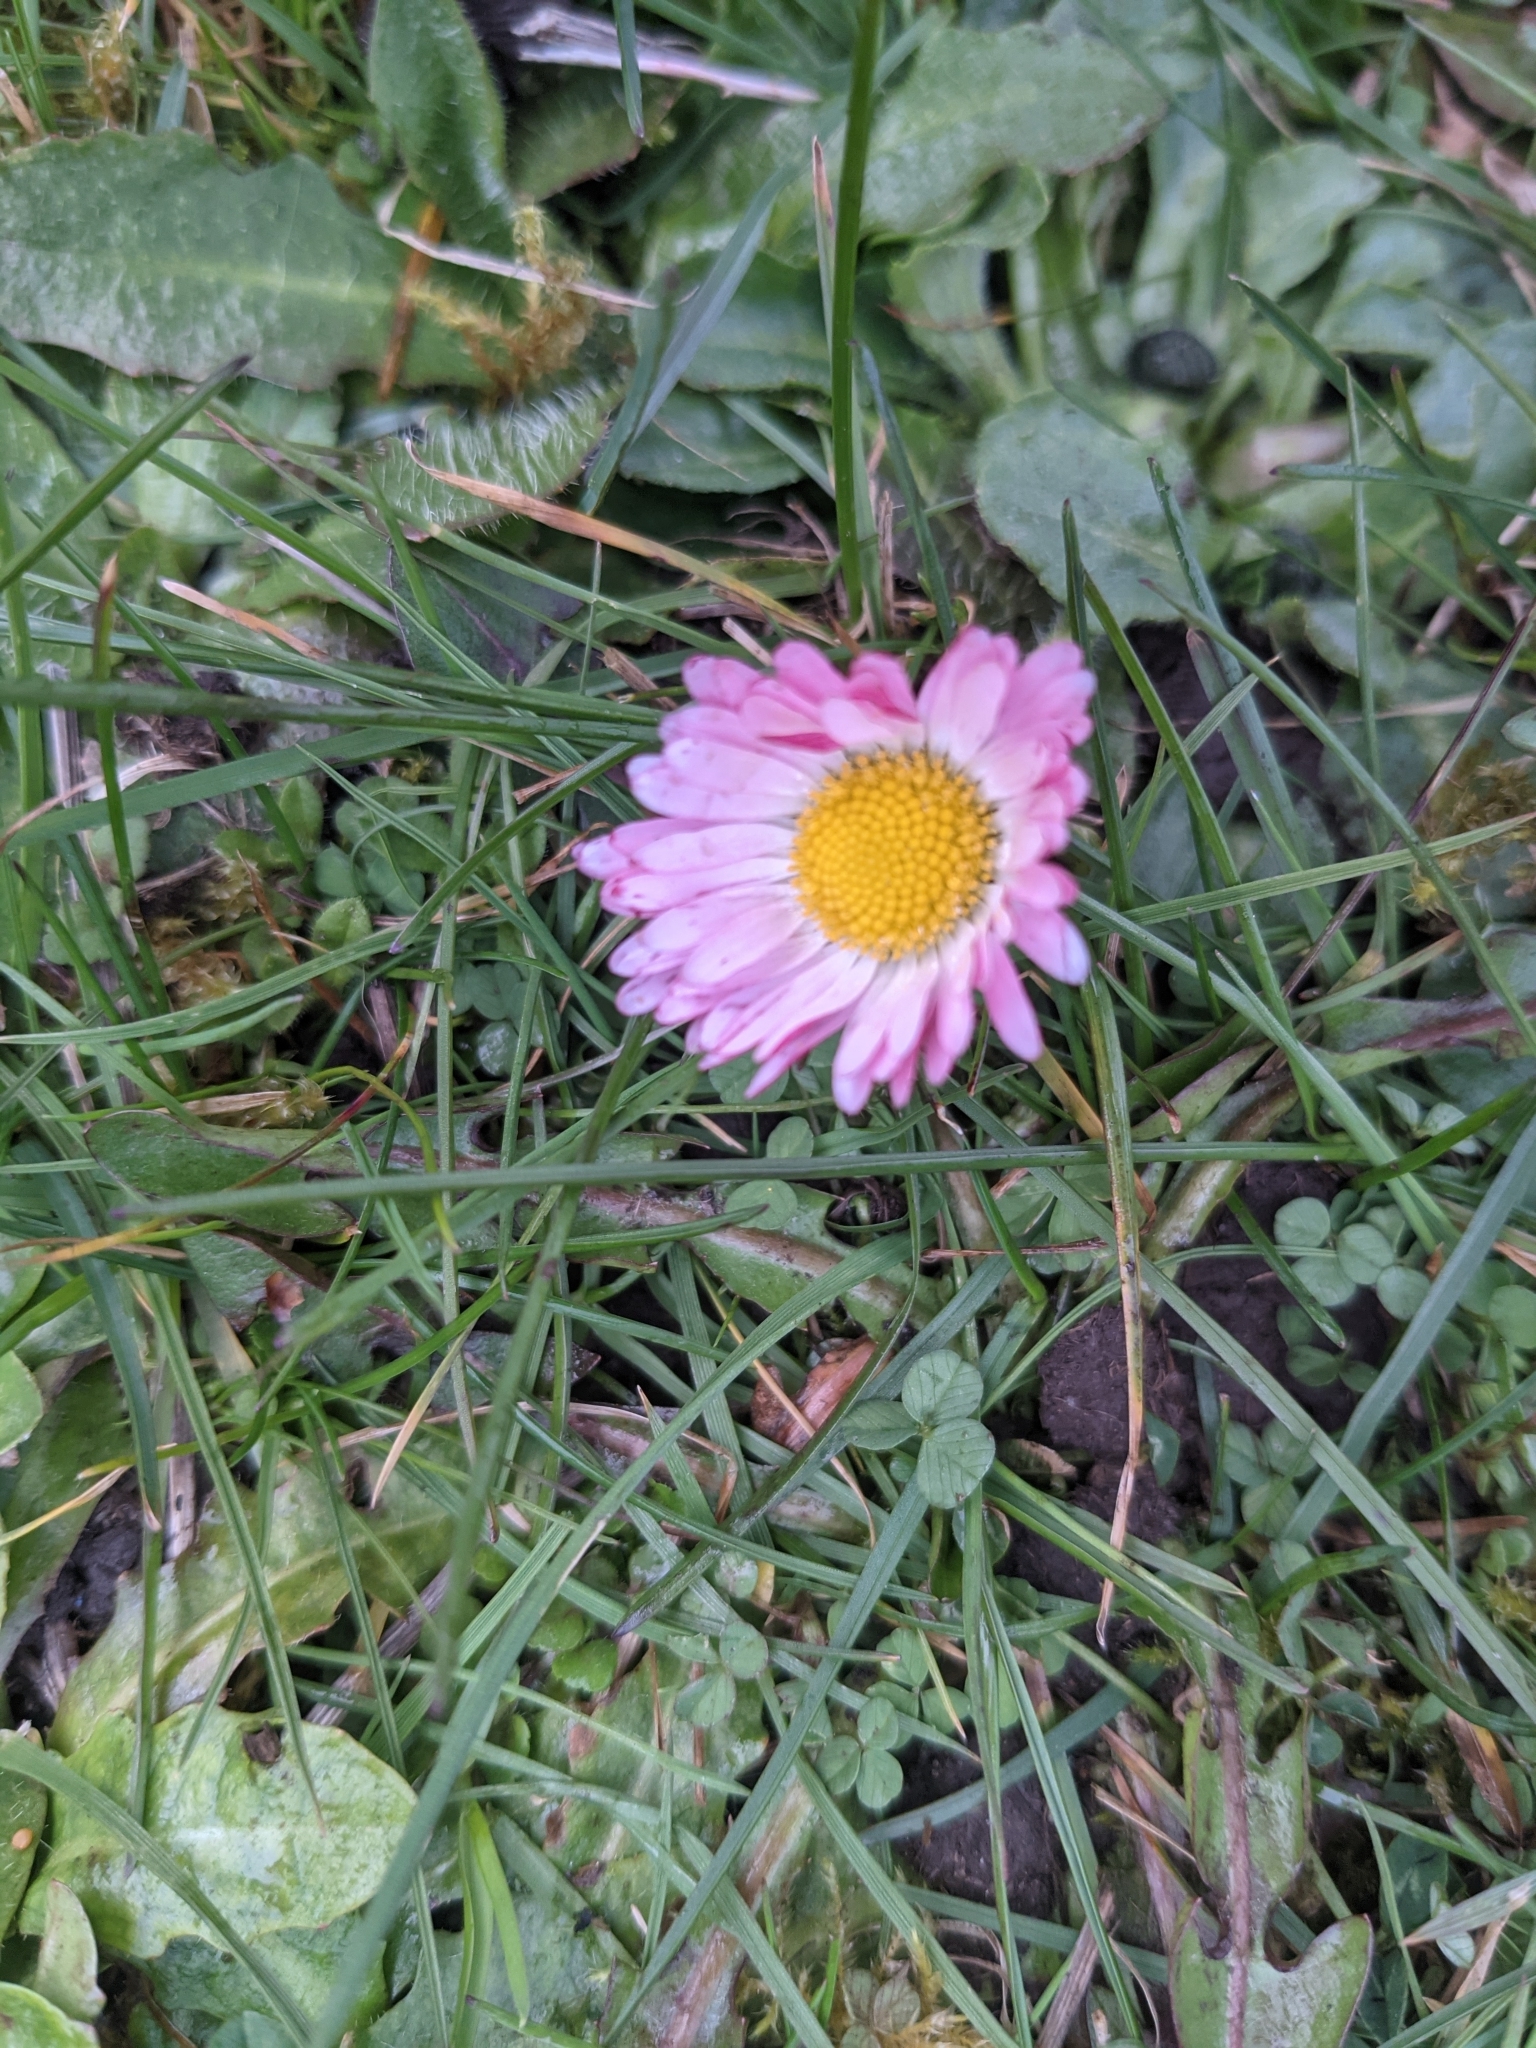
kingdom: Plantae
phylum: Tracheophyta
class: Magnoliopsida
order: Asterales
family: Asteraceae
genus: Bellis
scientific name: Bellis perennis
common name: Lawndaisy
